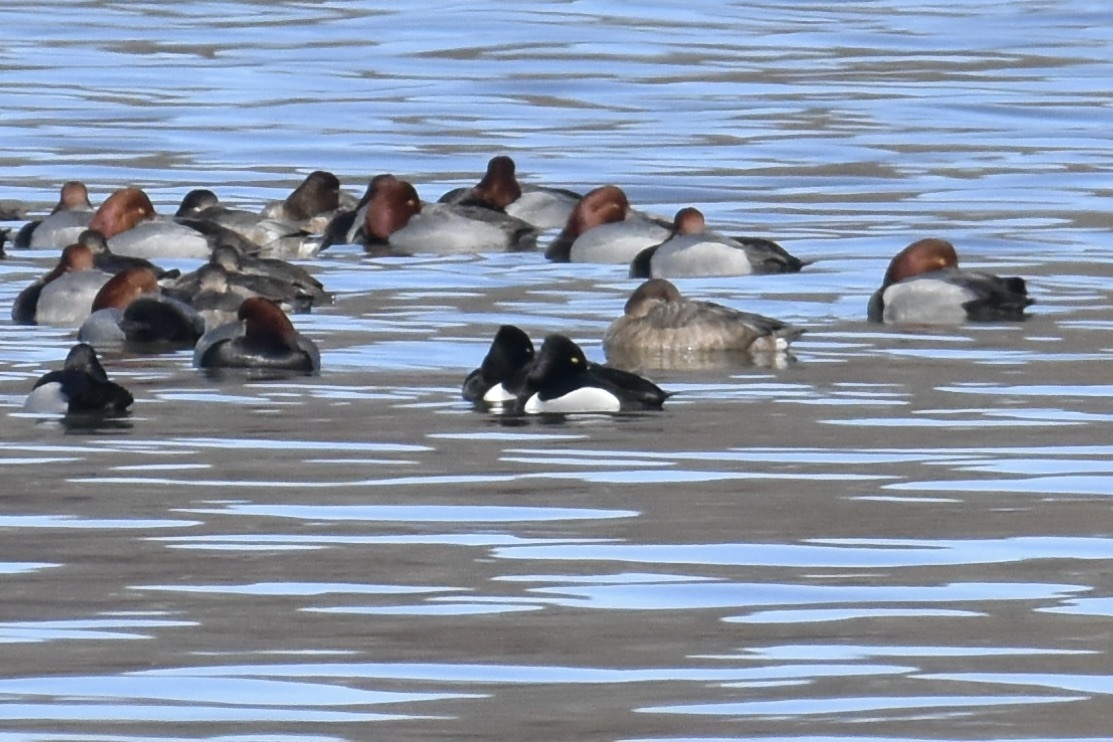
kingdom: Animalia
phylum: Chordata
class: Aves
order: Anseriformes
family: Anatidae
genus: Aythya
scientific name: Aythya collaris
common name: Ring-necked duck
